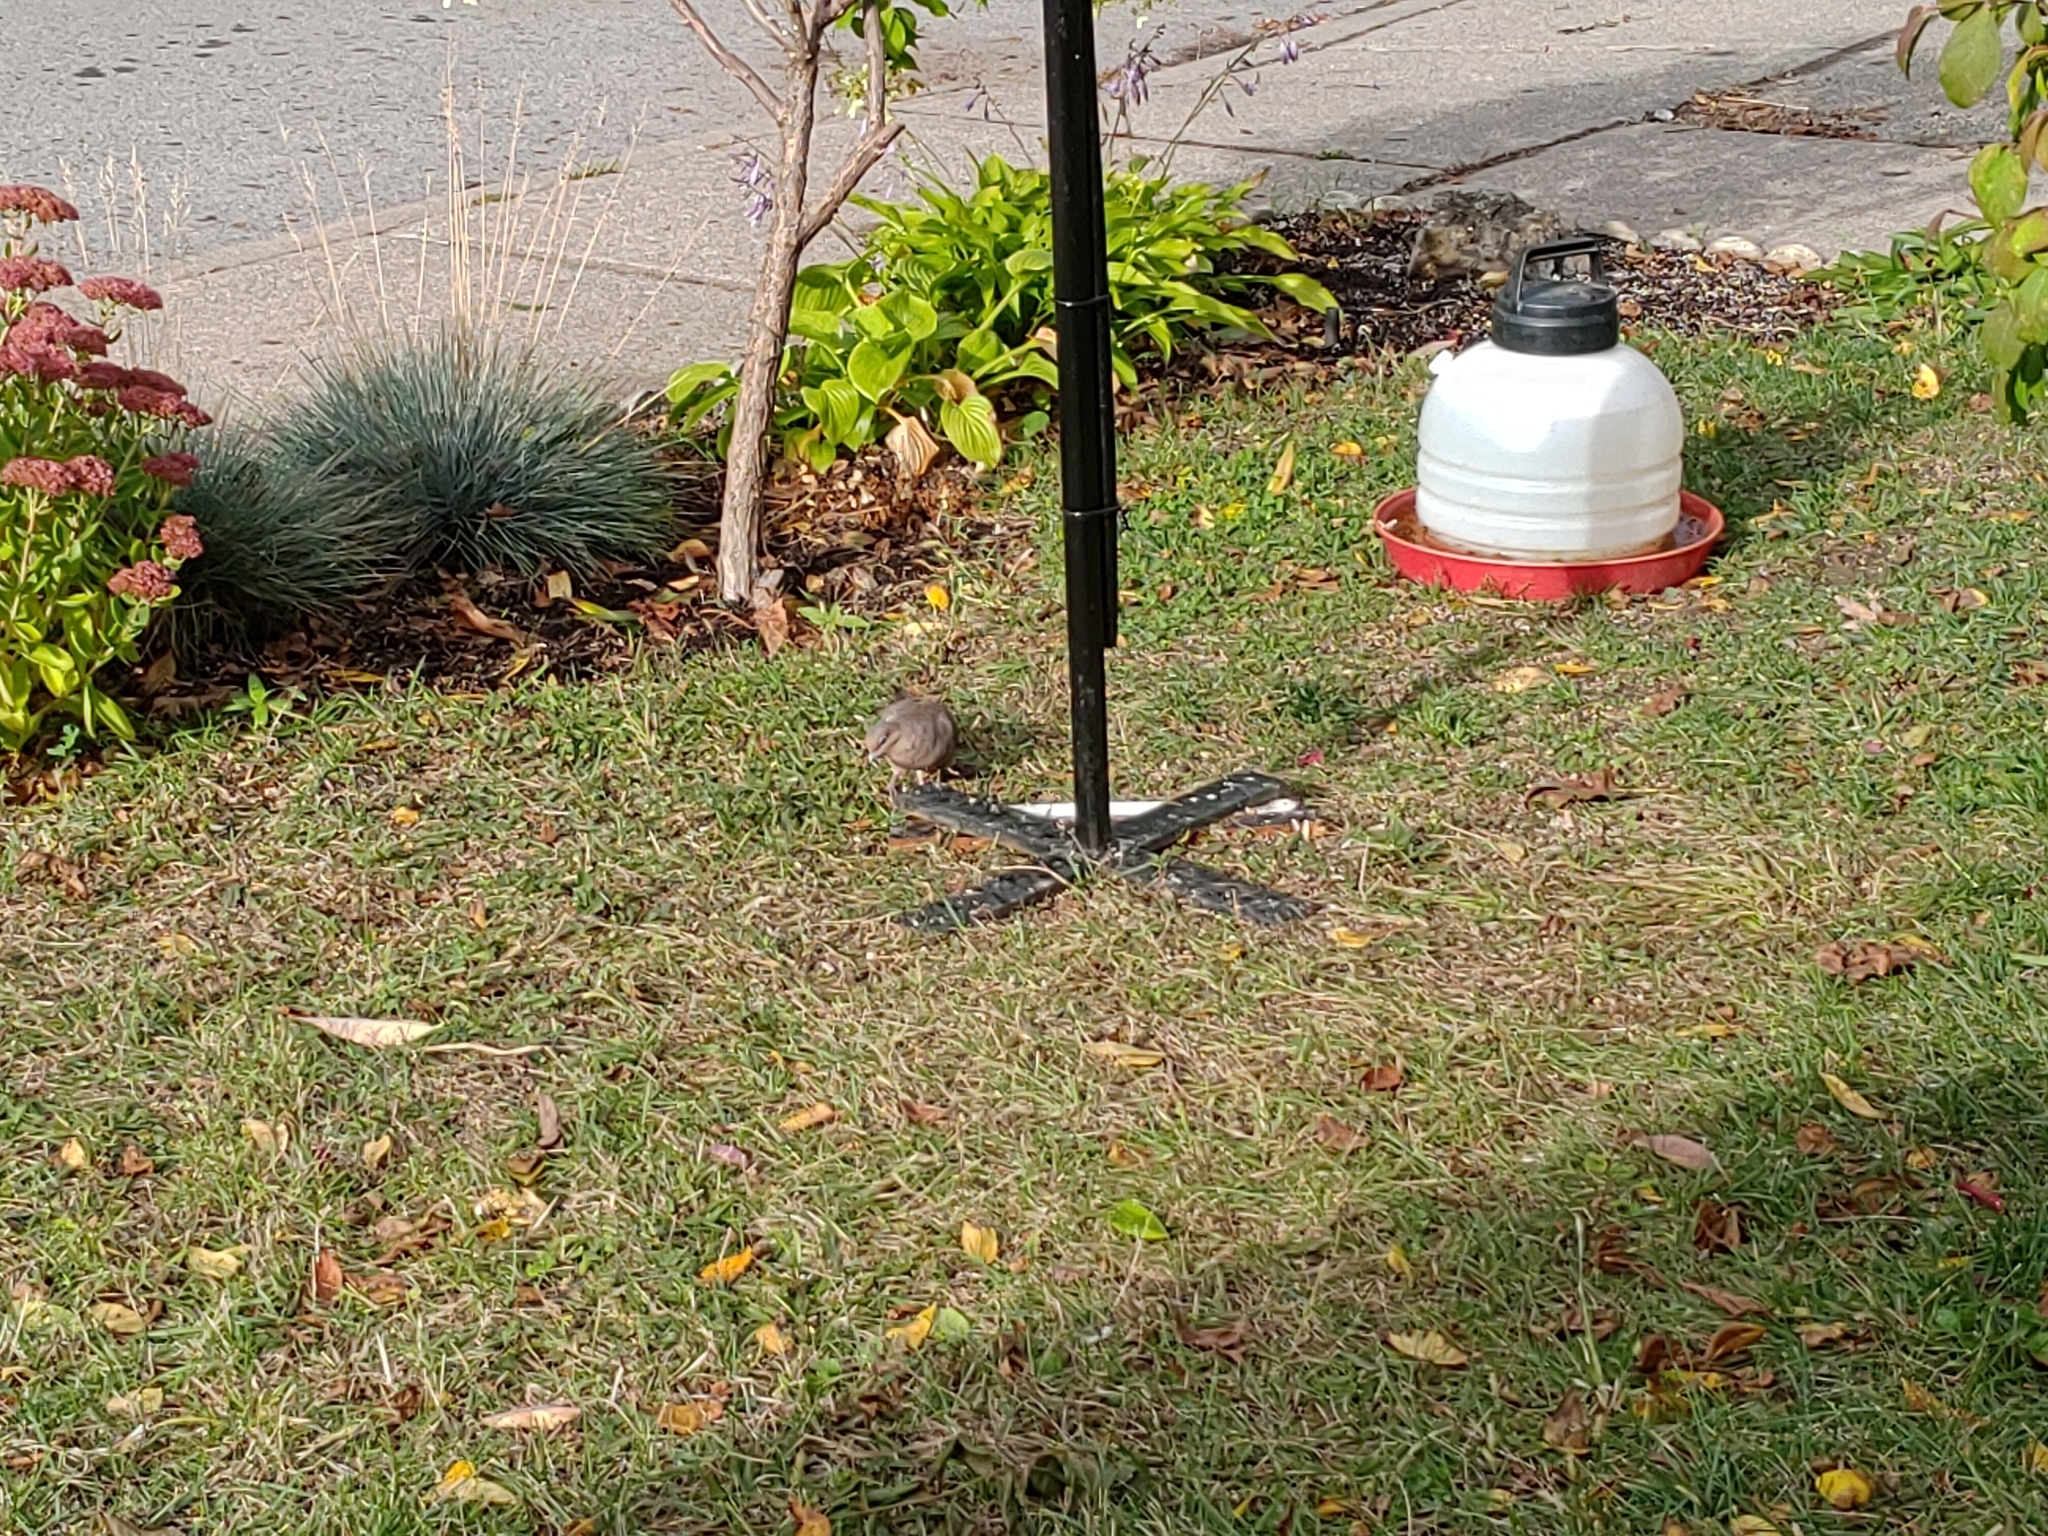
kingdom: Animalia
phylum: Chordata
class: Aves
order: Columbiformes
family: Columbidae
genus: Zenaida
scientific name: Zenaida macroura
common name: Mourning dove
